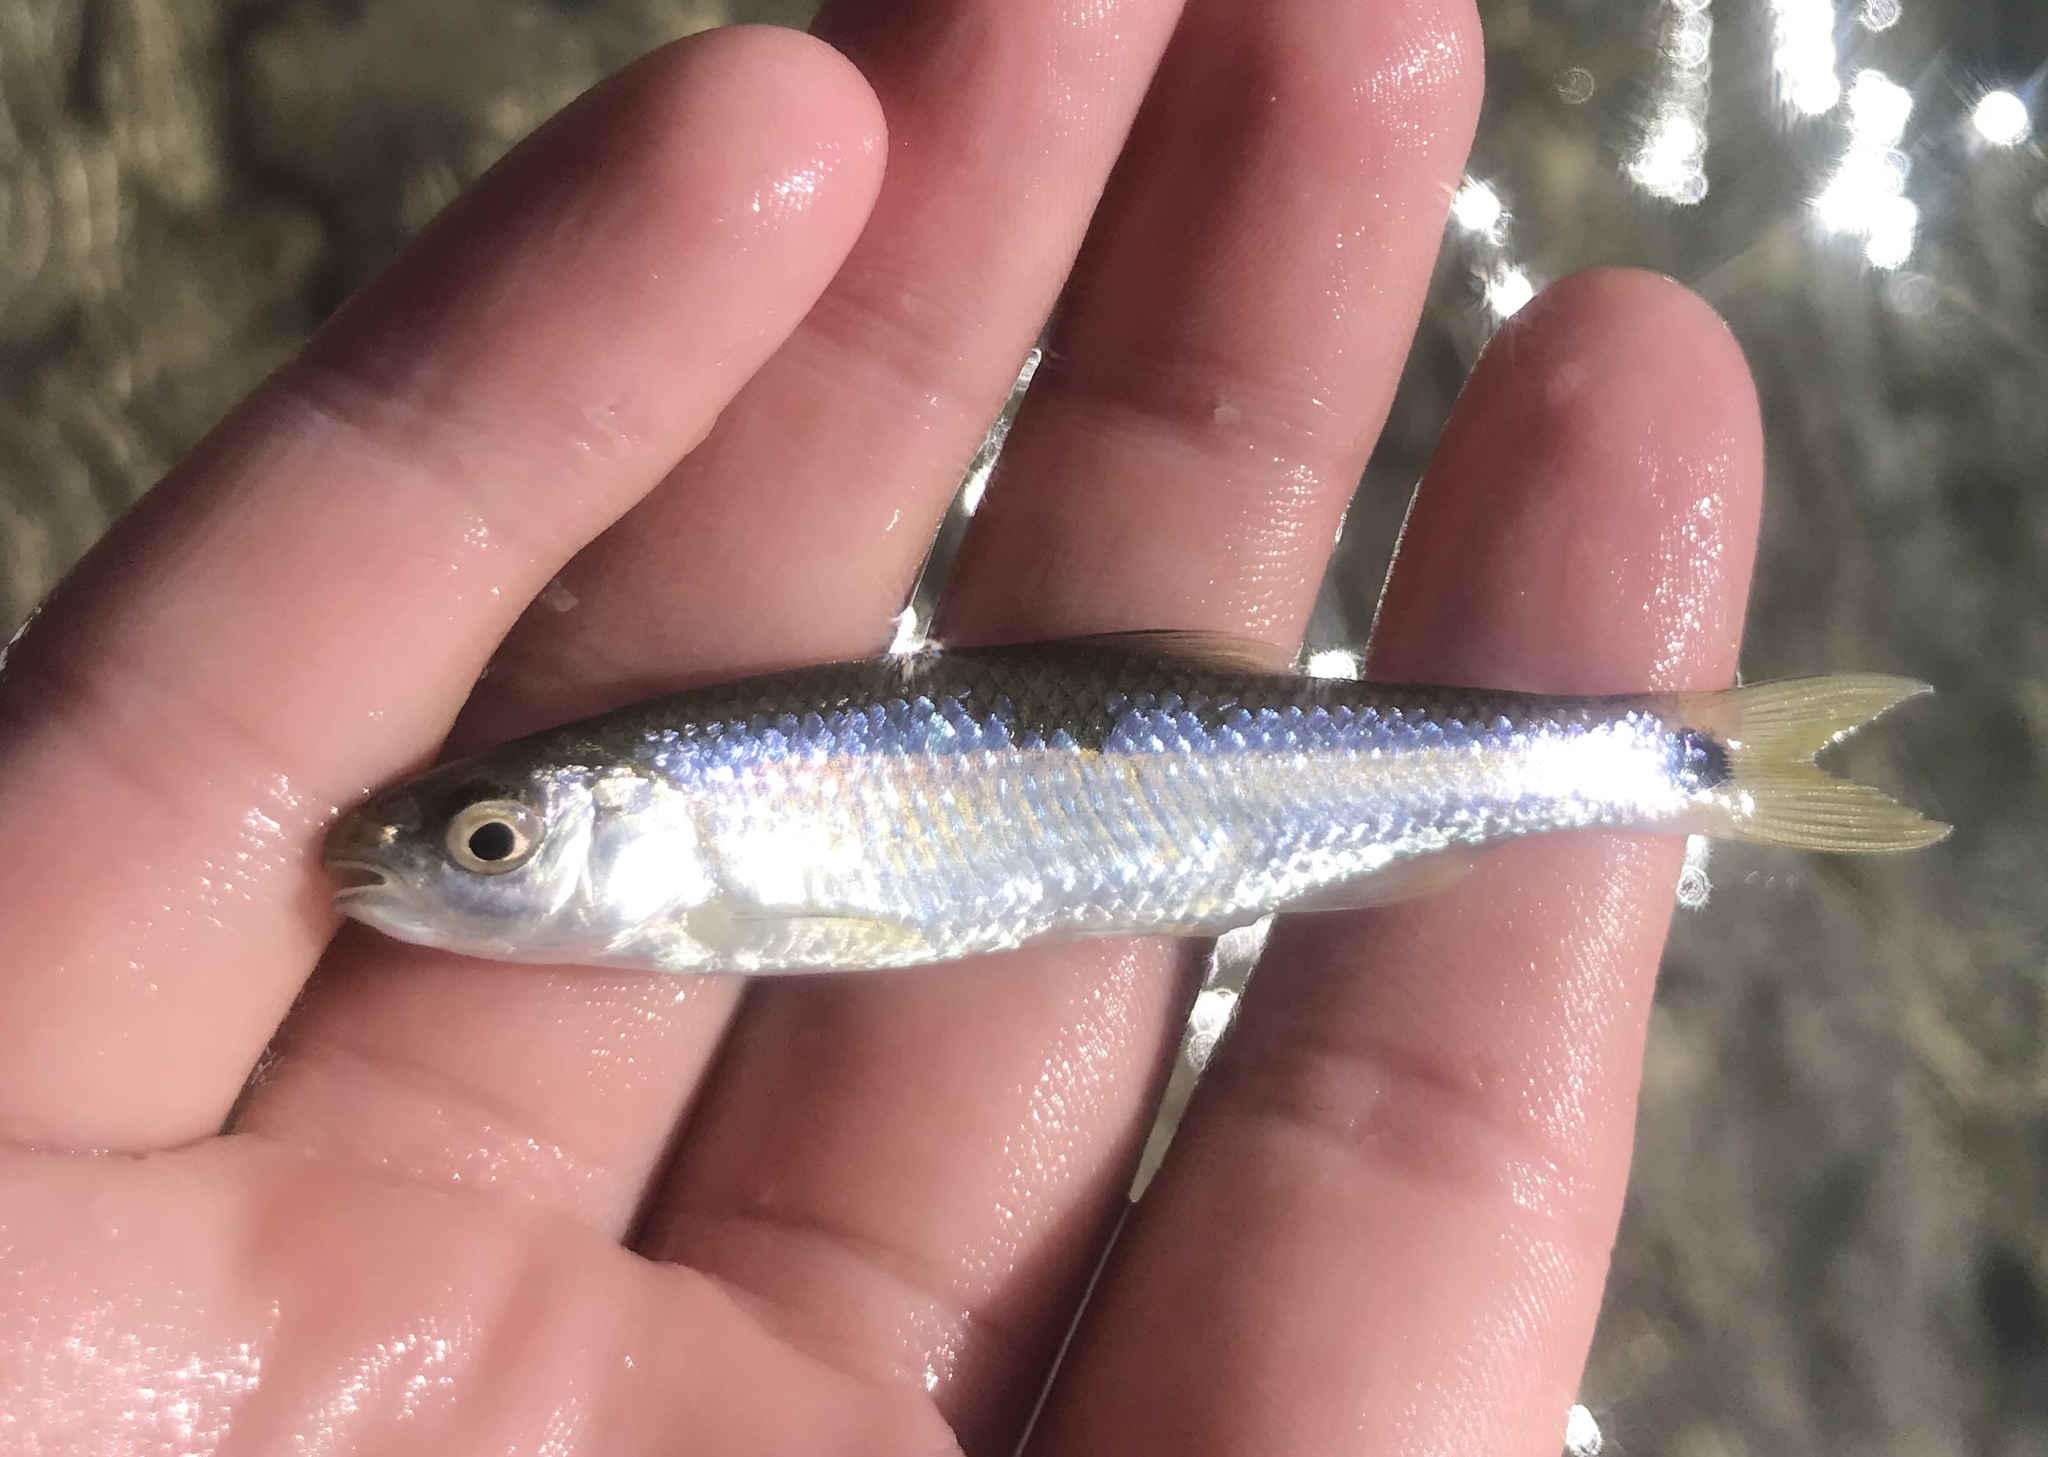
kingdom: Animalia
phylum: Chordata
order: Cypriniformes
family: Cyprinidae
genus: Cyprinella
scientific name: Cyprinella venusta
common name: Blacktail shiner
